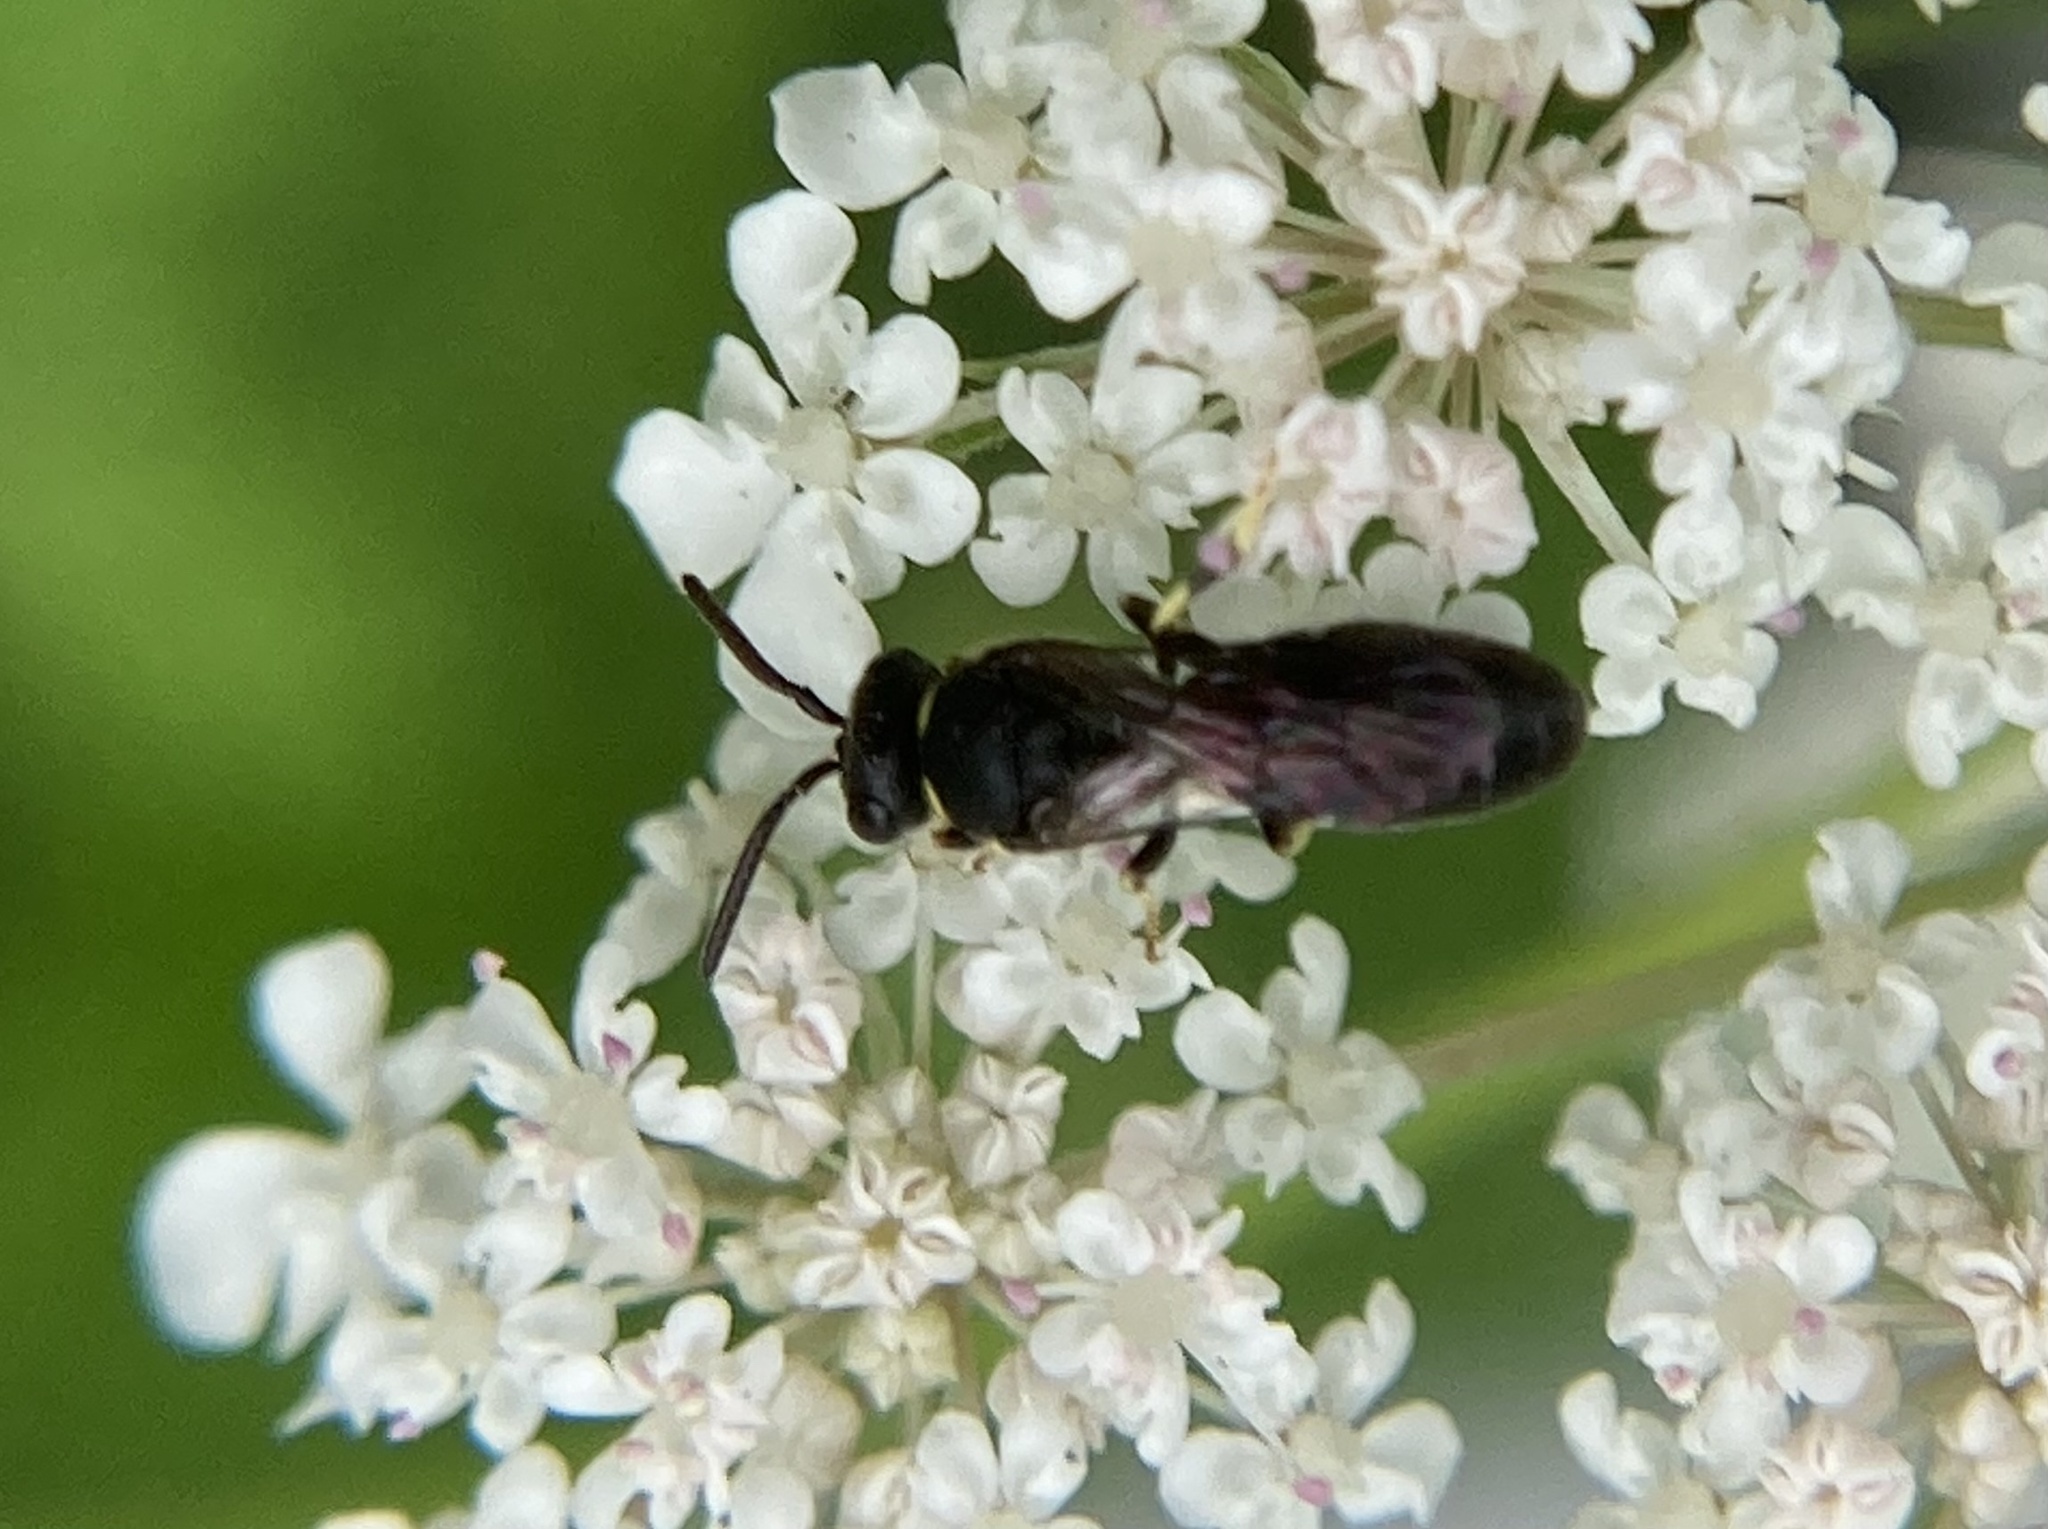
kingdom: Animalia
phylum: Arthropoda
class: Insecta
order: Hymenoptera
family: Colletidae
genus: Hylaeus
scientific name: Hylaeus
